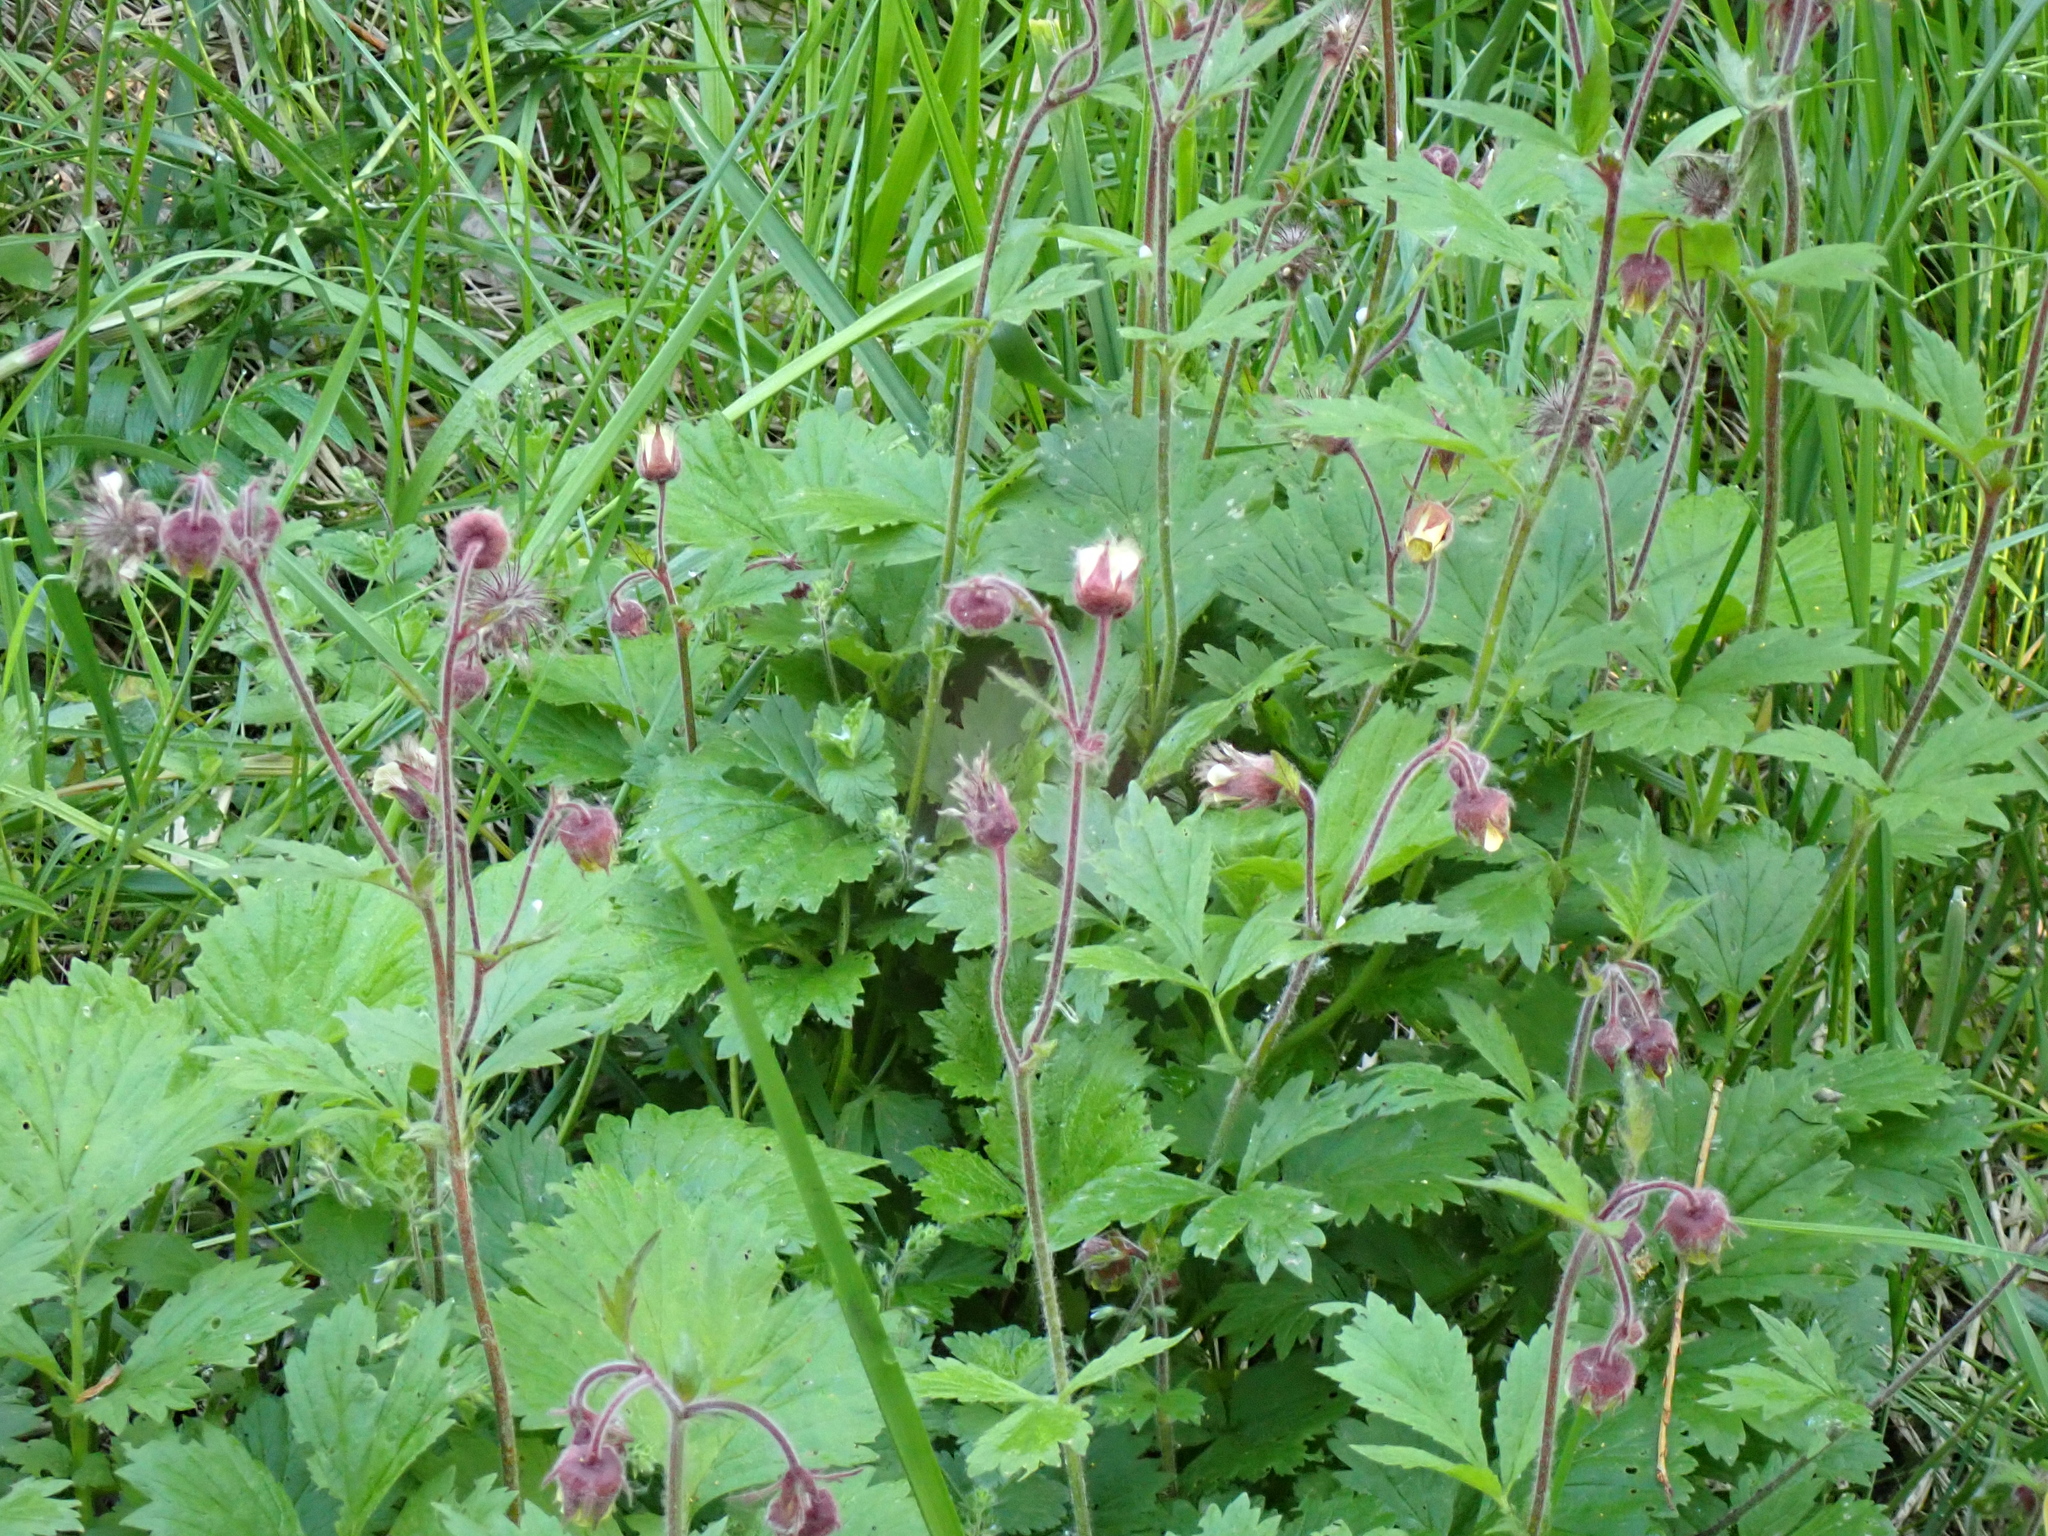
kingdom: Plantae
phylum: Tracheophyta
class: Magnoliopsida
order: Rosales
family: Rosaceae
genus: Geum
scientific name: Geum rivale
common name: Water avens
